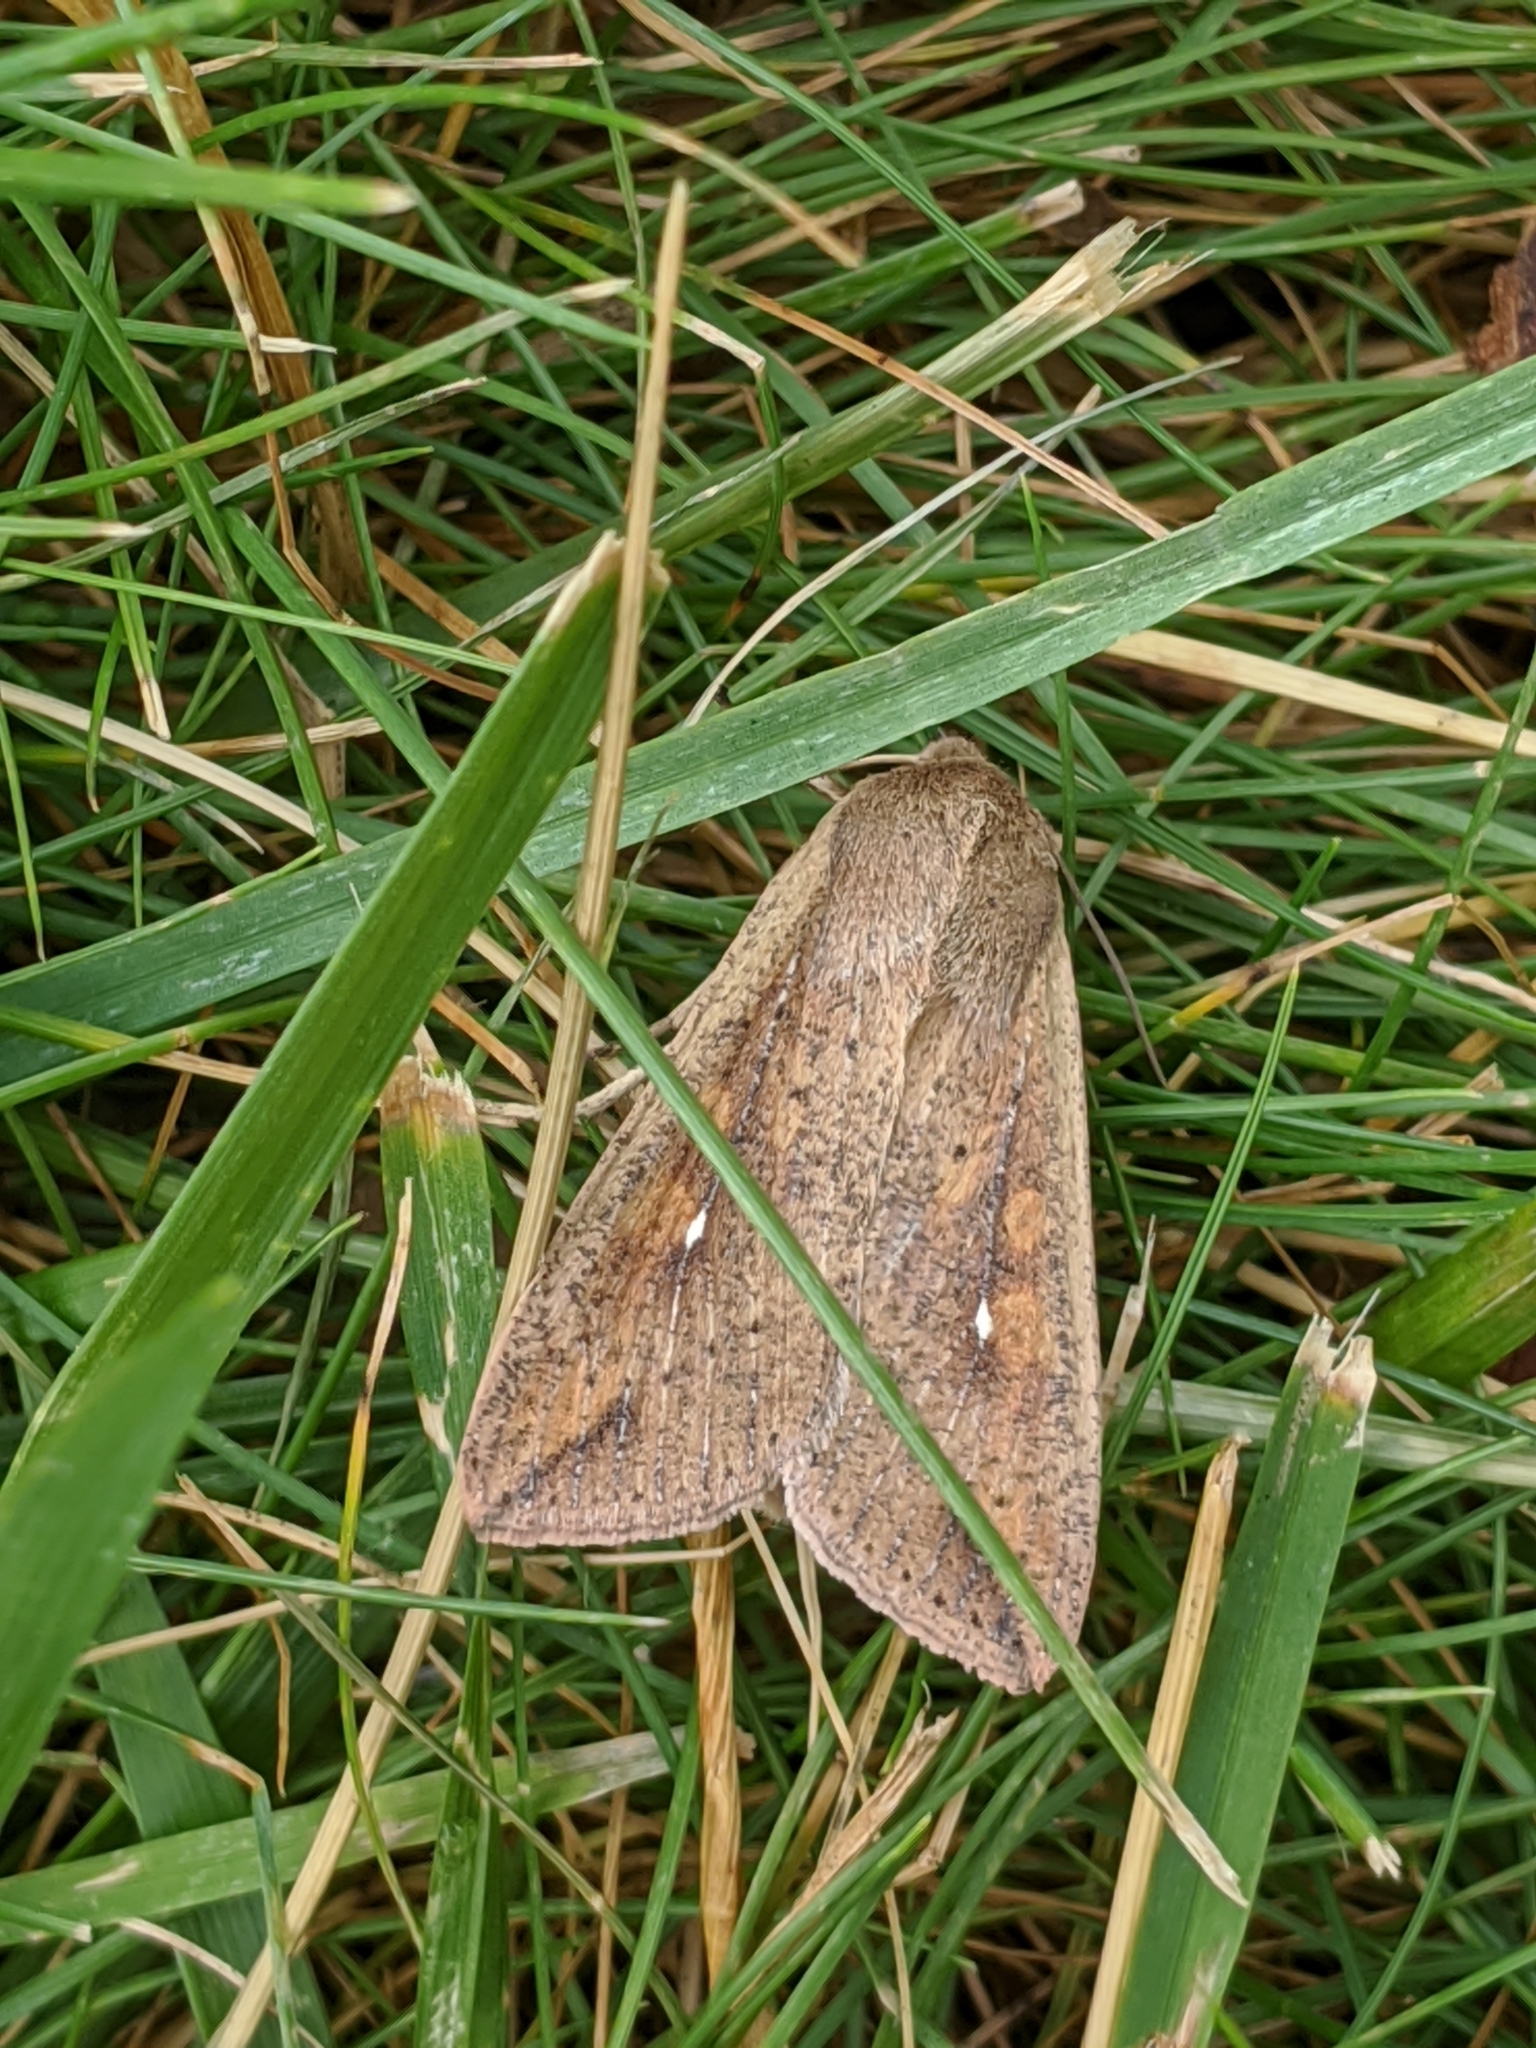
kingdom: Animalia
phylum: Arthropoda
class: Insecta
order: Lepidoptera
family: Noctuidae
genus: Mythimna
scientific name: Mythimna unipuncta
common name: White-speck
